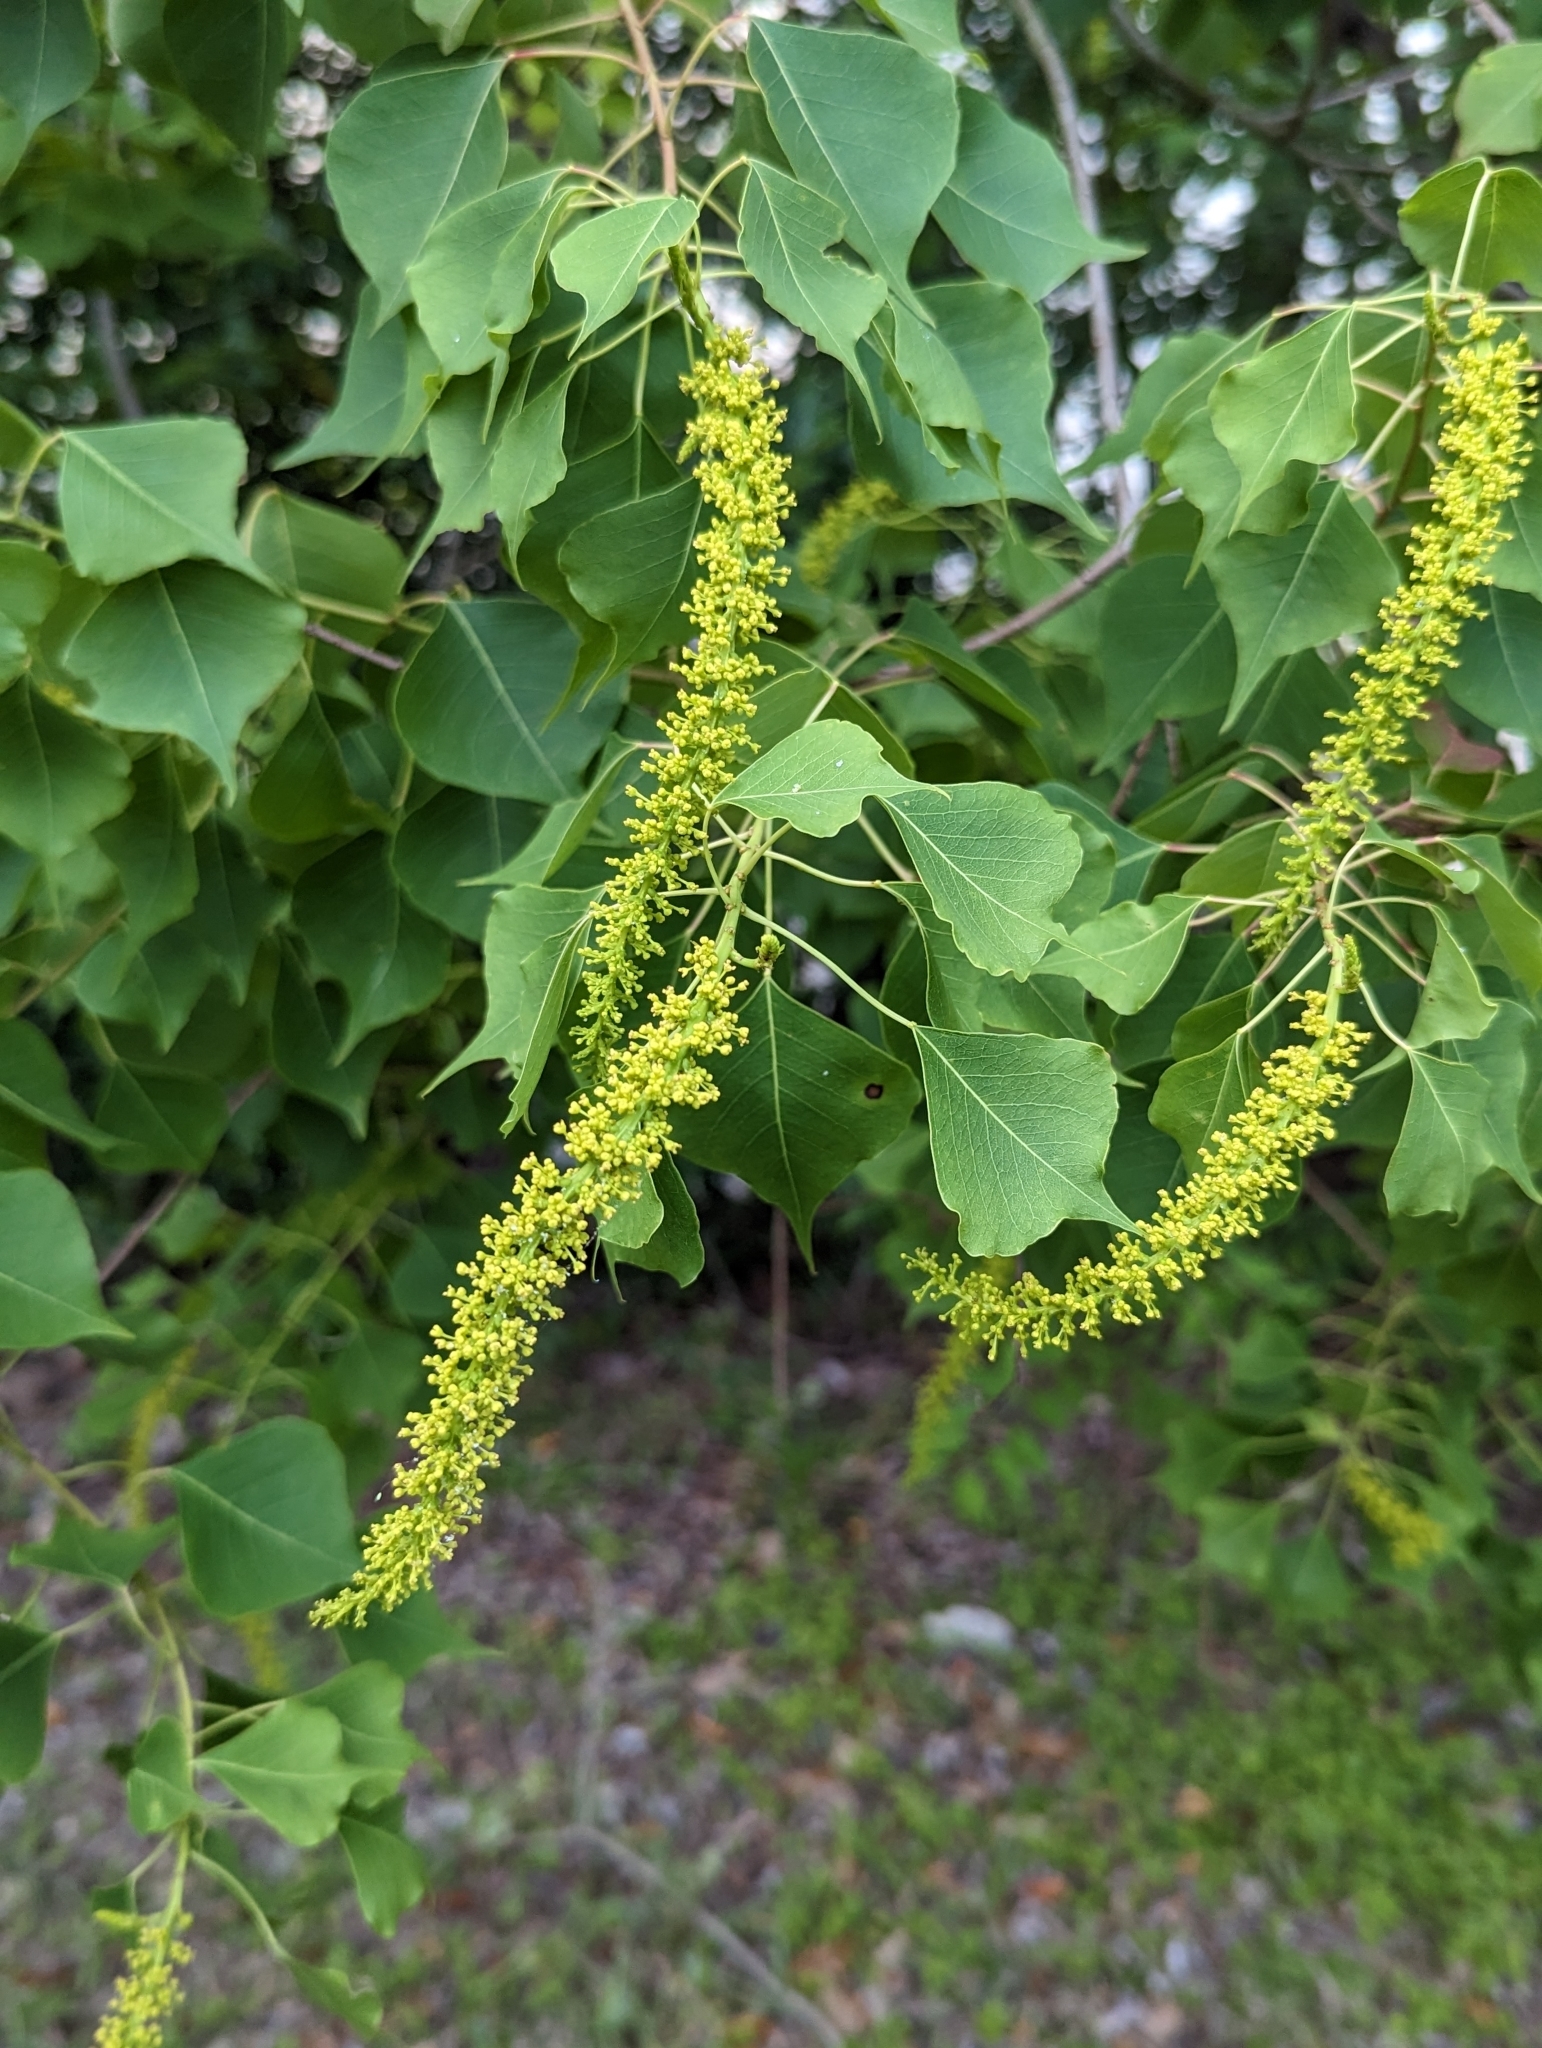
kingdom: Plantae
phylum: Tracheophyta
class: Magnoliopsida
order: Malpighiales
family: Euphorbiaceae
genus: Triadica
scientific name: Triadica sebifera
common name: Chinese tallow
